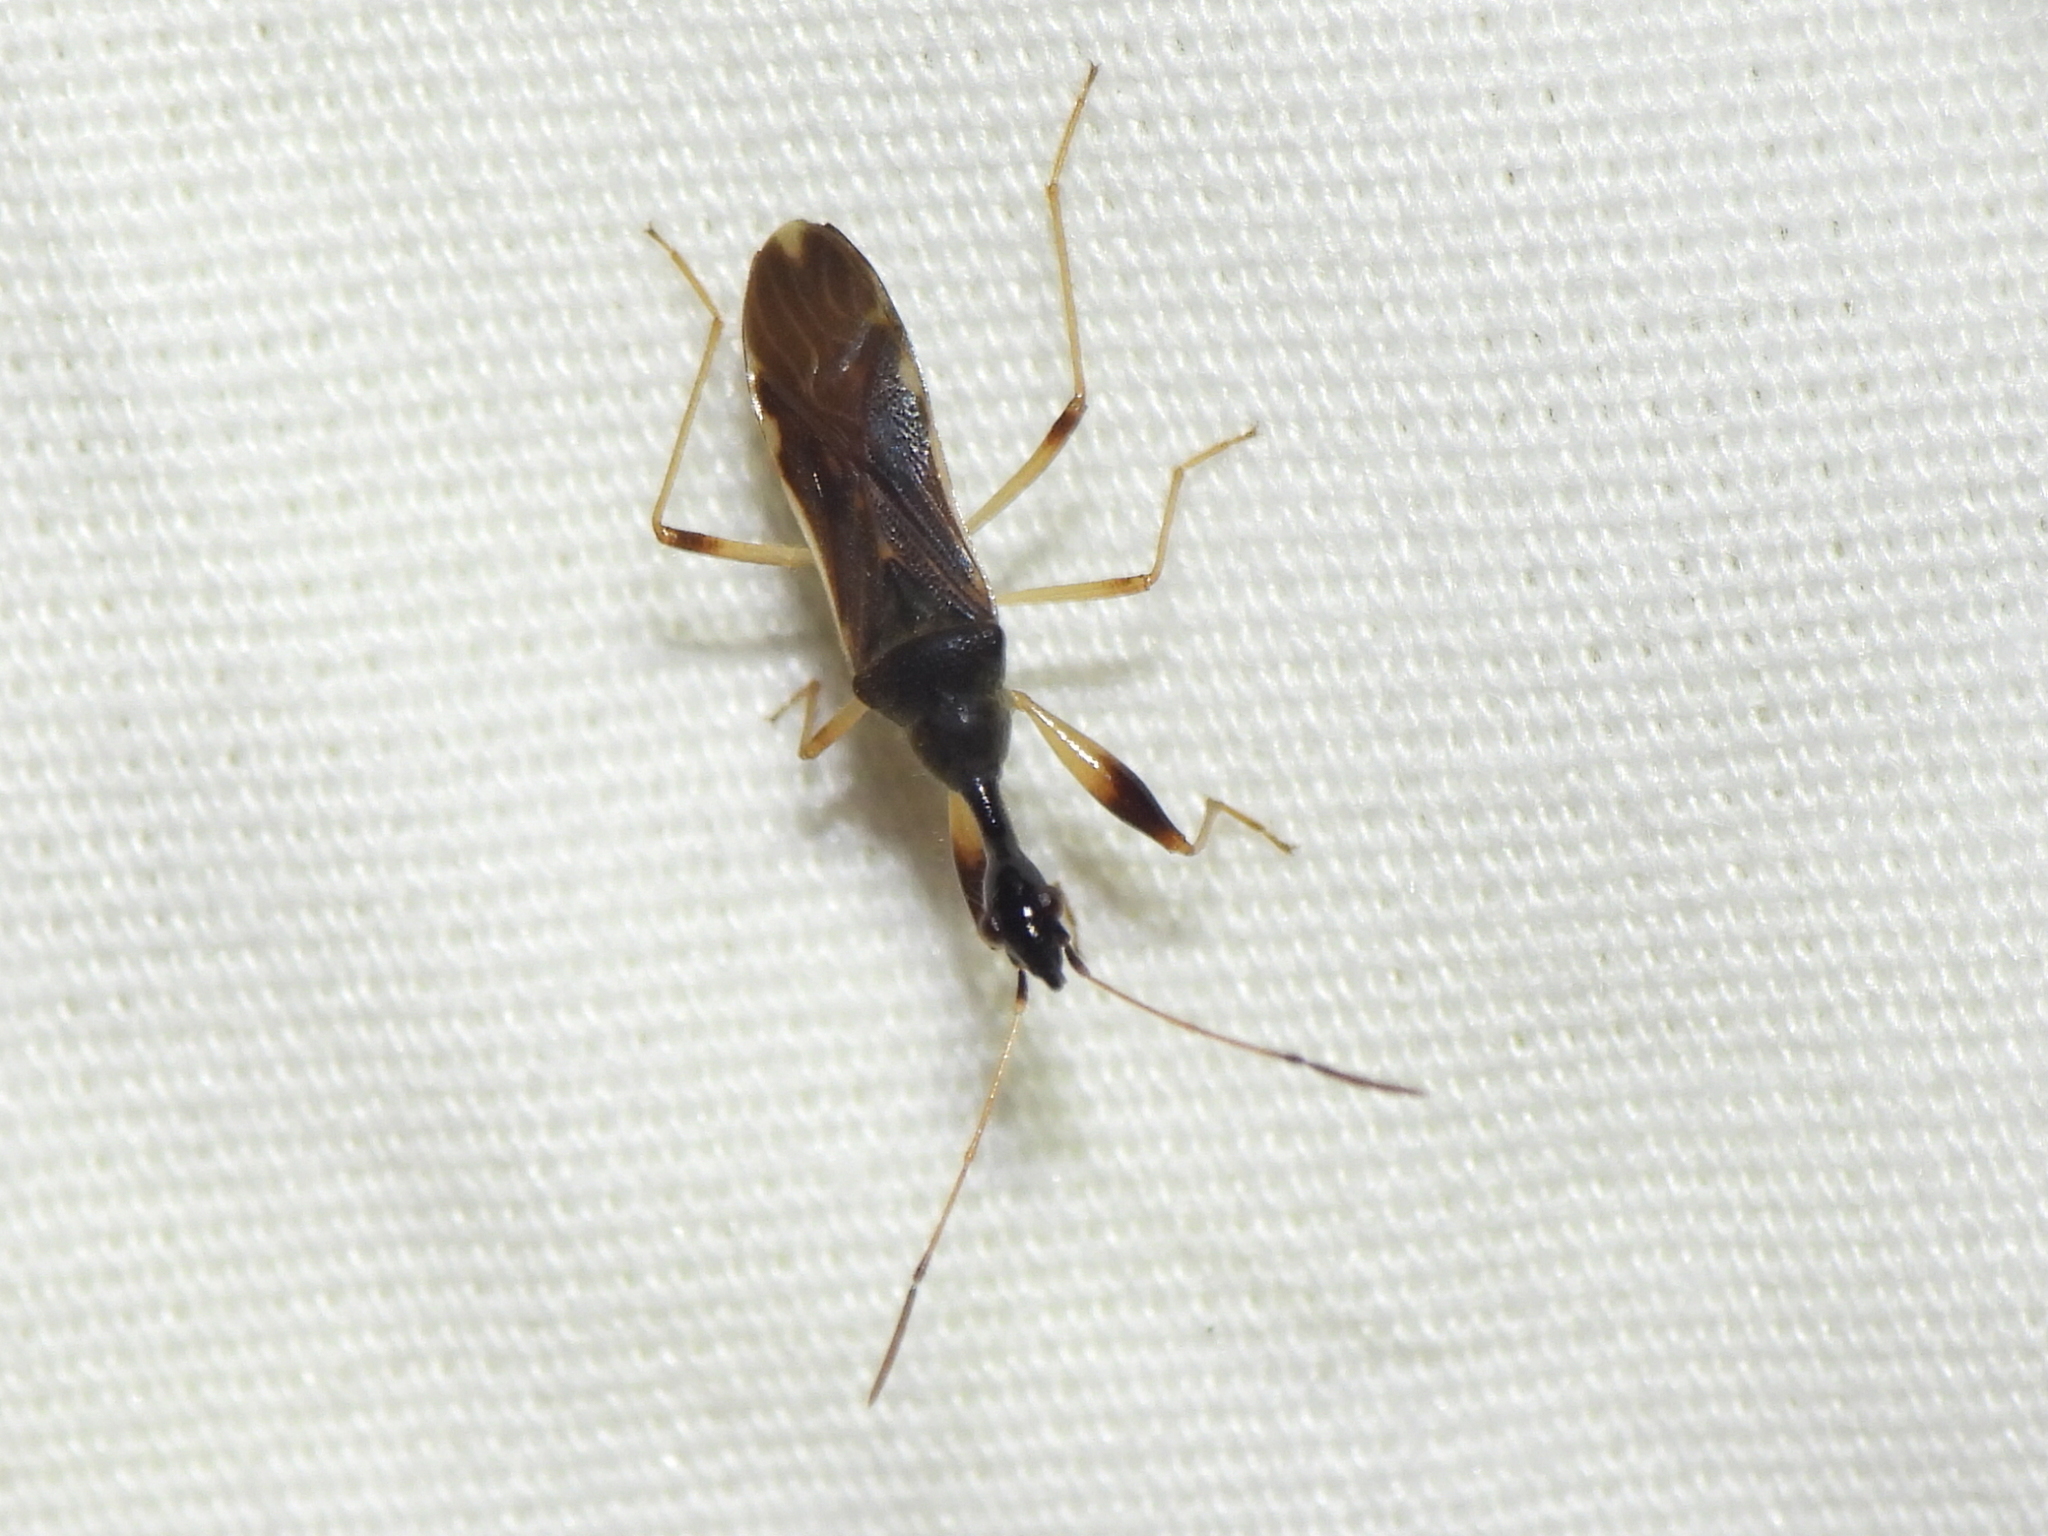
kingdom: Animalia
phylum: Arthropoda
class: Insecta
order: Hemiptera
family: Rhyparochromidae
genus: Myodocha
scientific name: Myodocha serripes
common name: Long-necked seed bug
